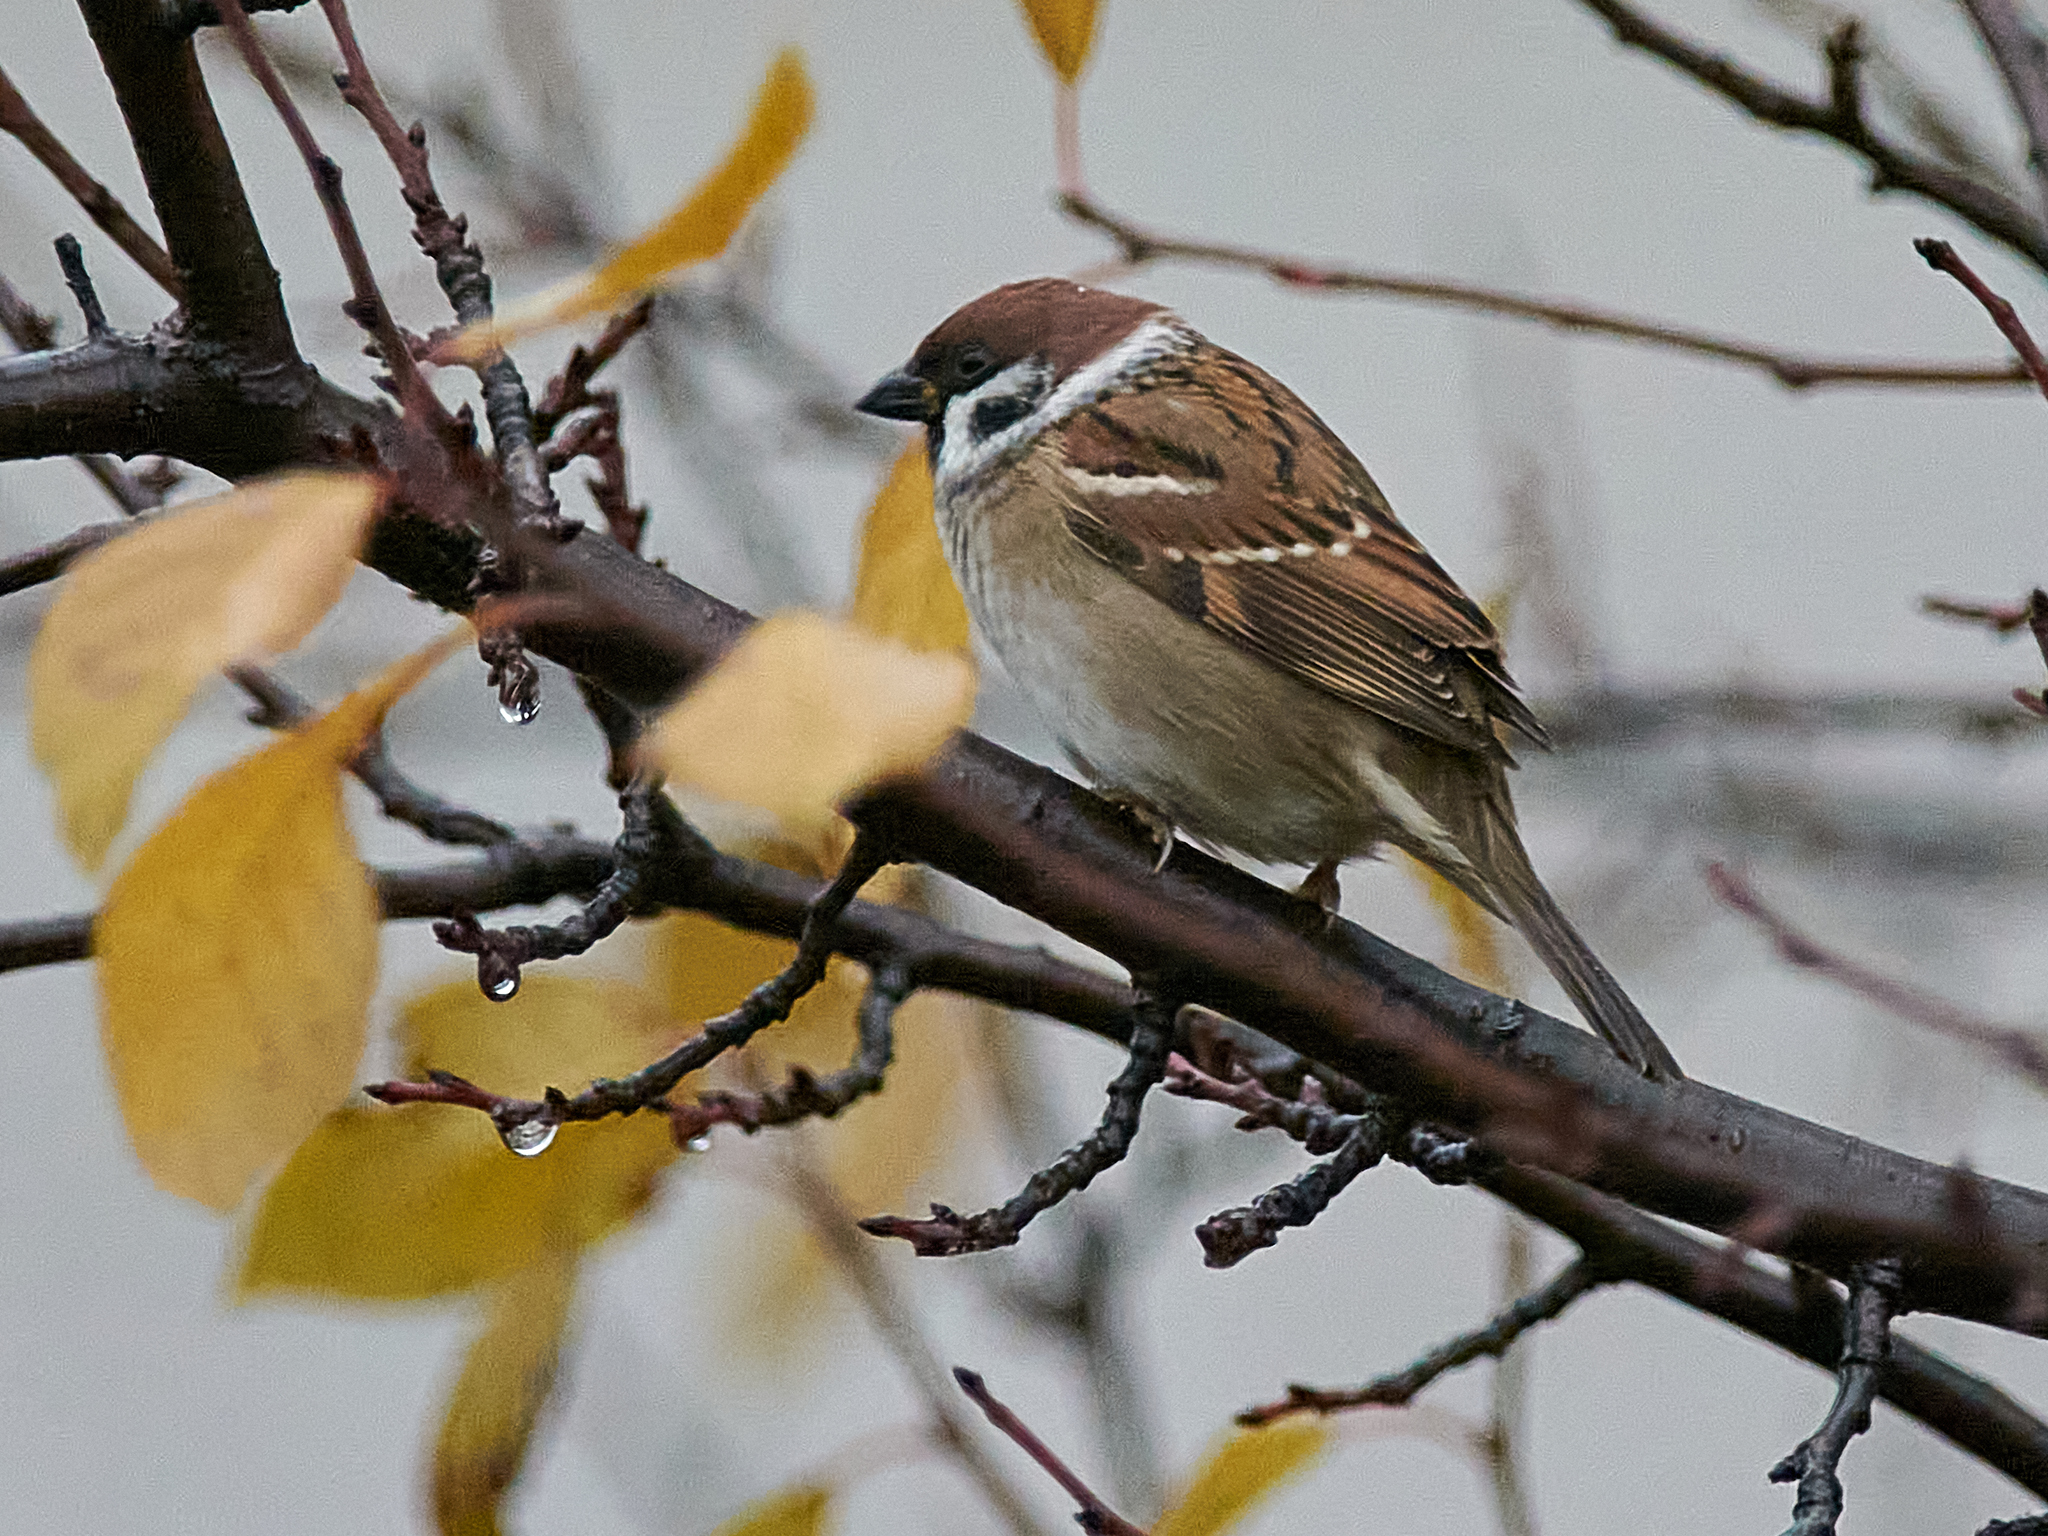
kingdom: Animalia
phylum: Chordata
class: Aves
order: Passeriformes
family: Passeridae
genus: Passer
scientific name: Passer montanus
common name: Eurasian tree sparrow
